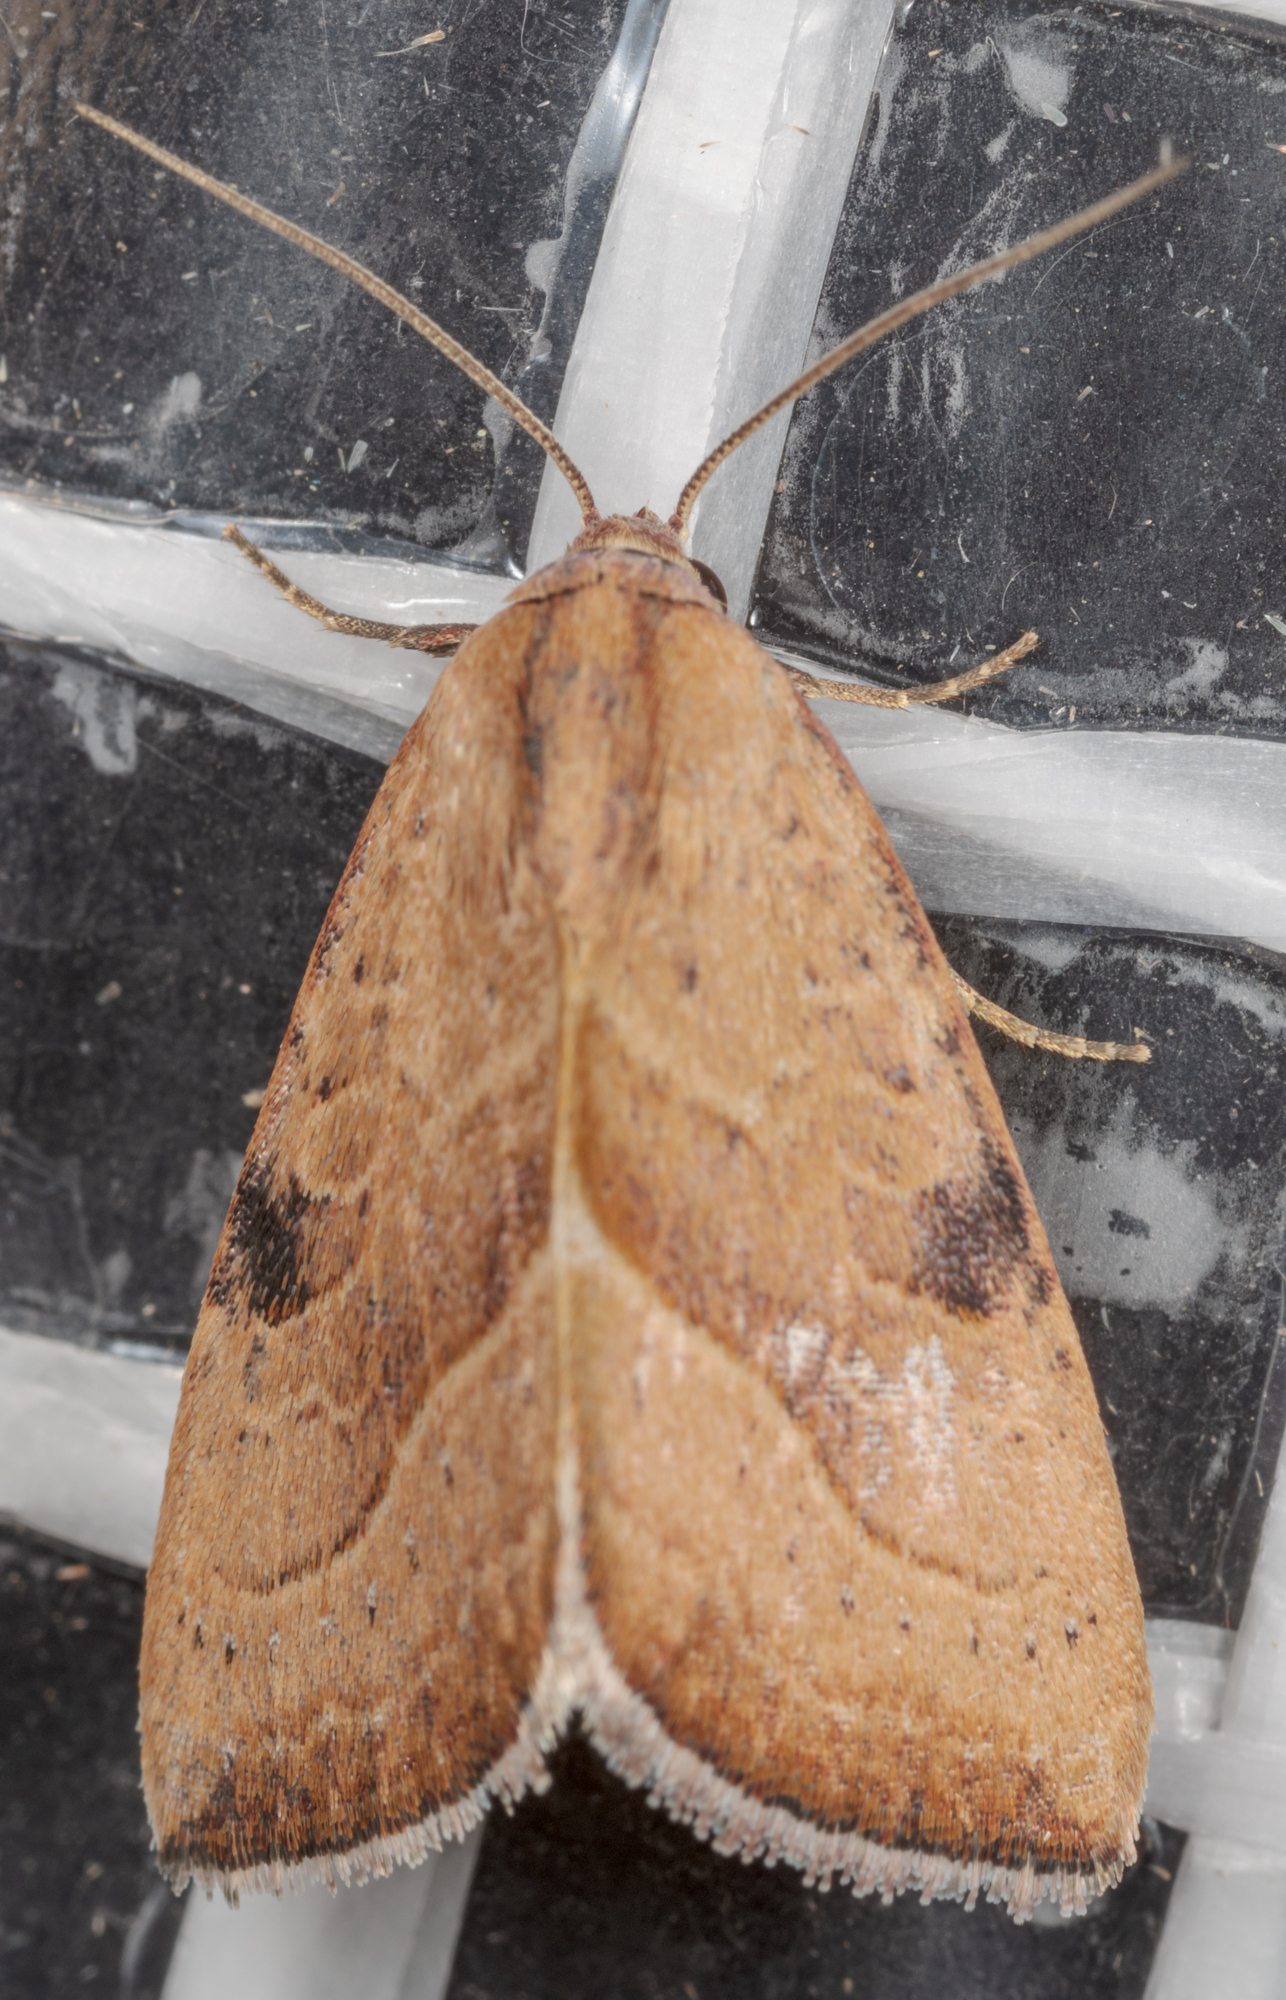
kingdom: Animalia
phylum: Arthropoda
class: Insecta
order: Lepidoptera
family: Noctuidae
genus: Galgula
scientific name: Galgula partita
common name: Wedgeling
